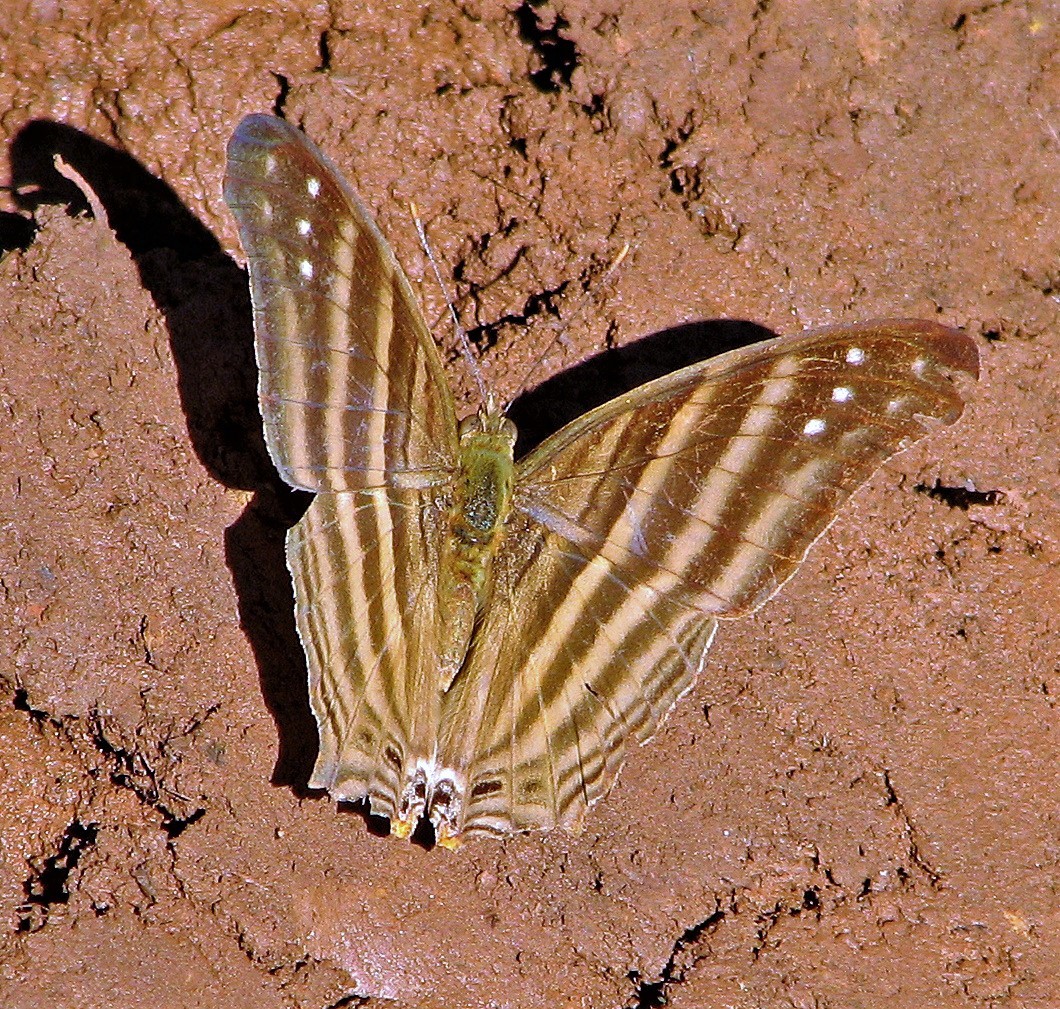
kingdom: Animalia
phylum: Arthropoda
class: Insecta
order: Lepidoptera
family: Nymphalidae
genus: Marpesia
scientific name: Marpesia chiron
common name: Many-banded daggerwing
